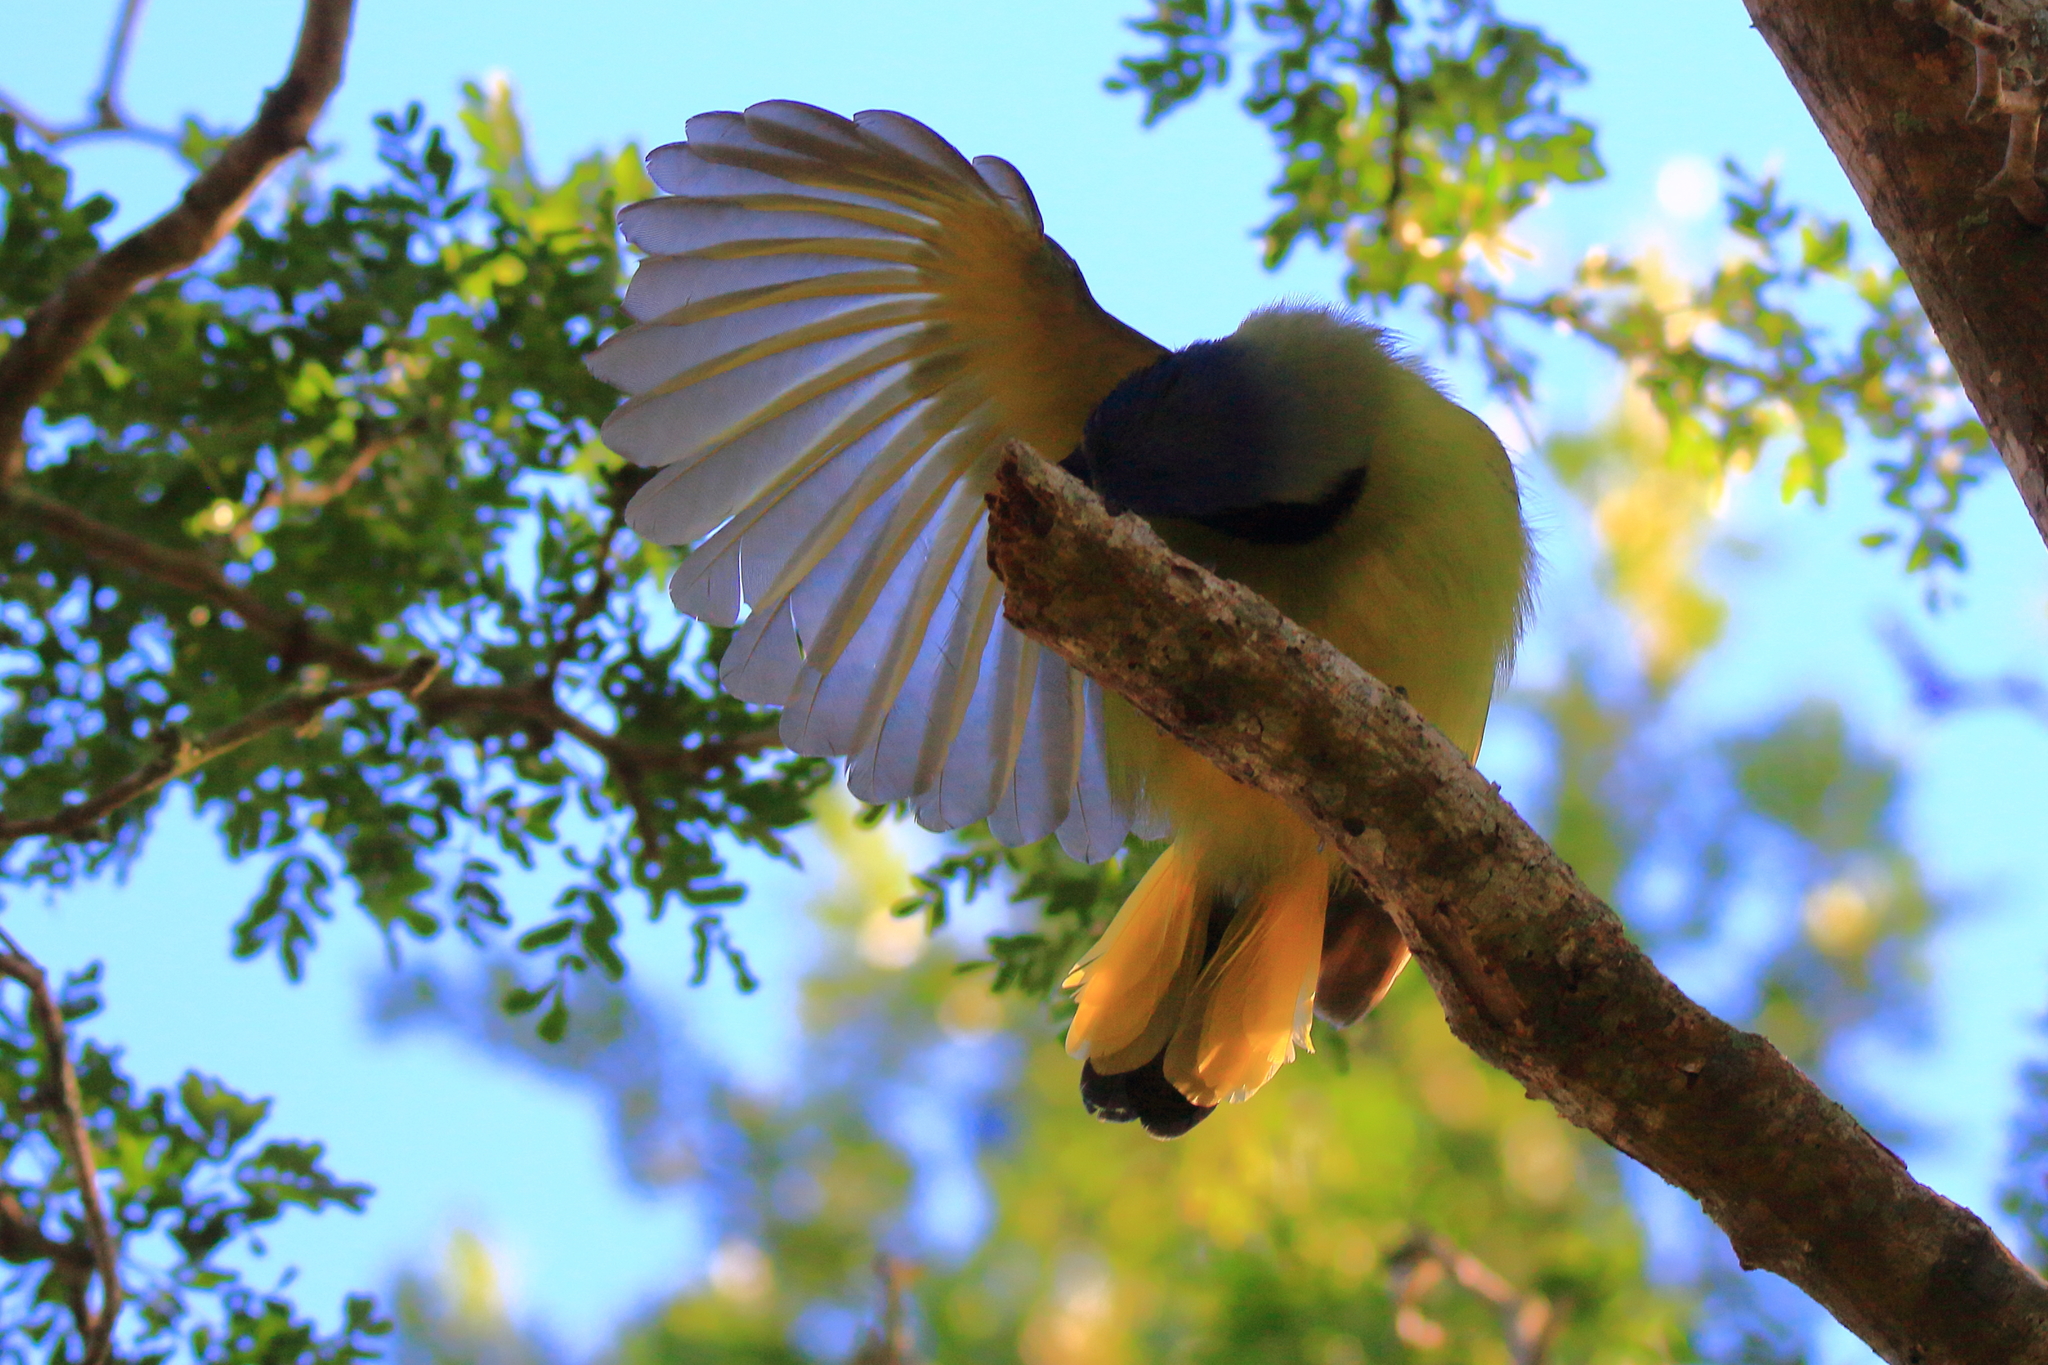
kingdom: Animalia
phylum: Chordata
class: Aves
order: Passeriformes
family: Corvidae
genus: Cyanocorax
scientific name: Cyanocorax yncas
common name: Green jay
